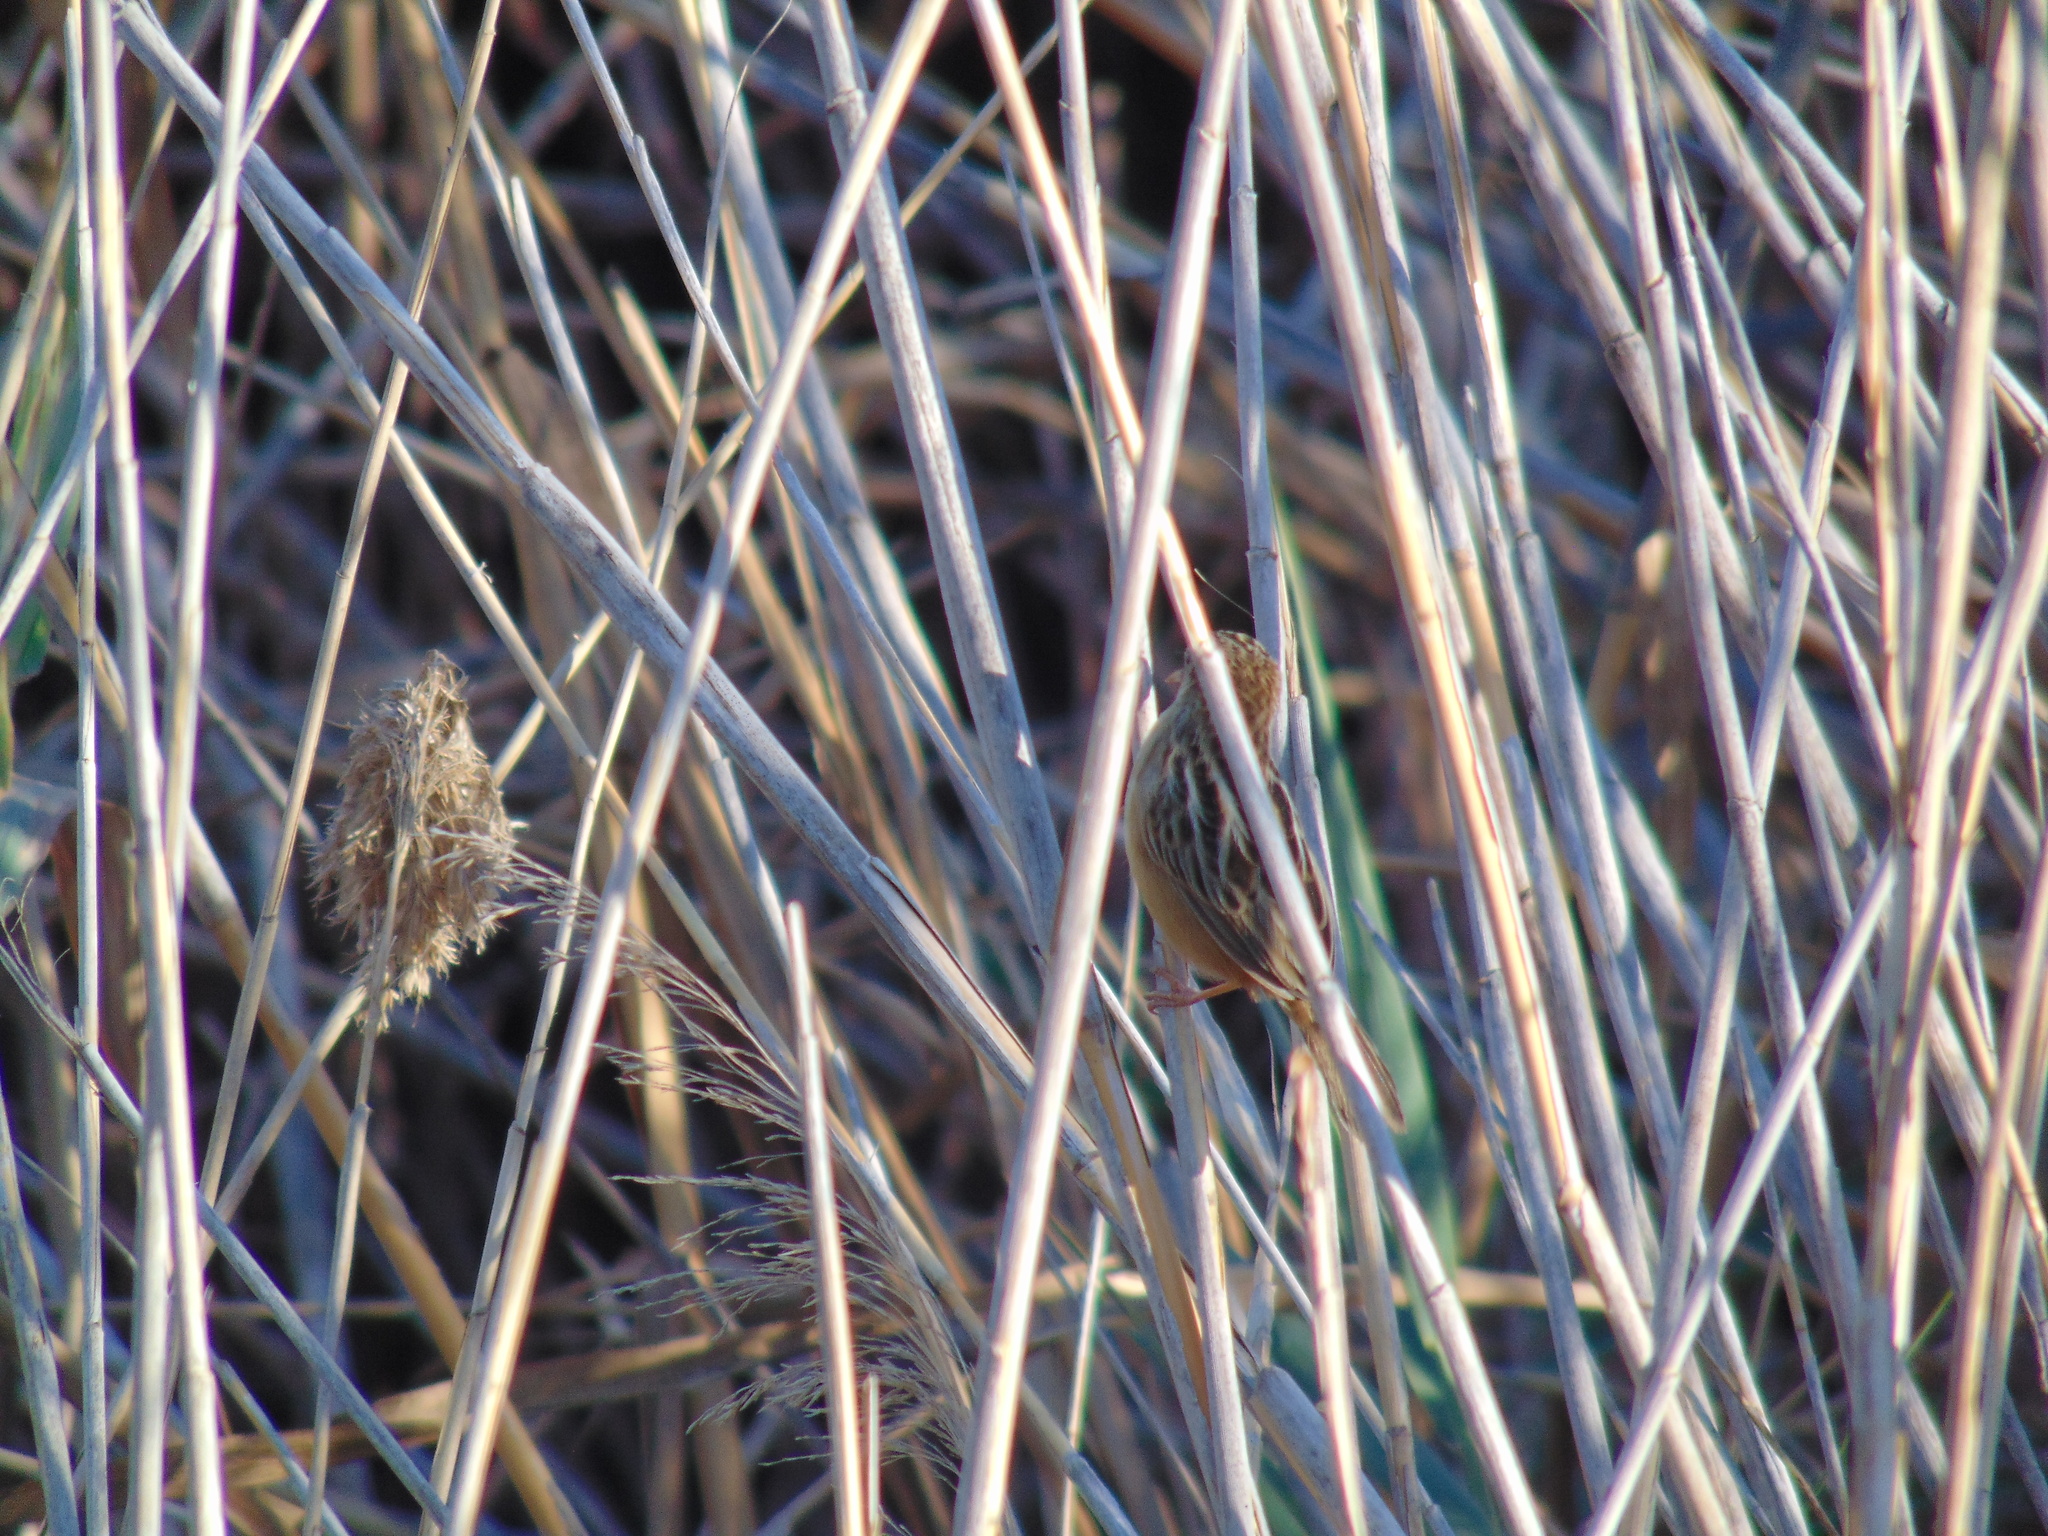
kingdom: Animalia
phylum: Chordata
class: Aves
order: Passeriformes
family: Cisticolidae
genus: Cisticola
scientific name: Cisticola juncidis
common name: Zitting cisticola
